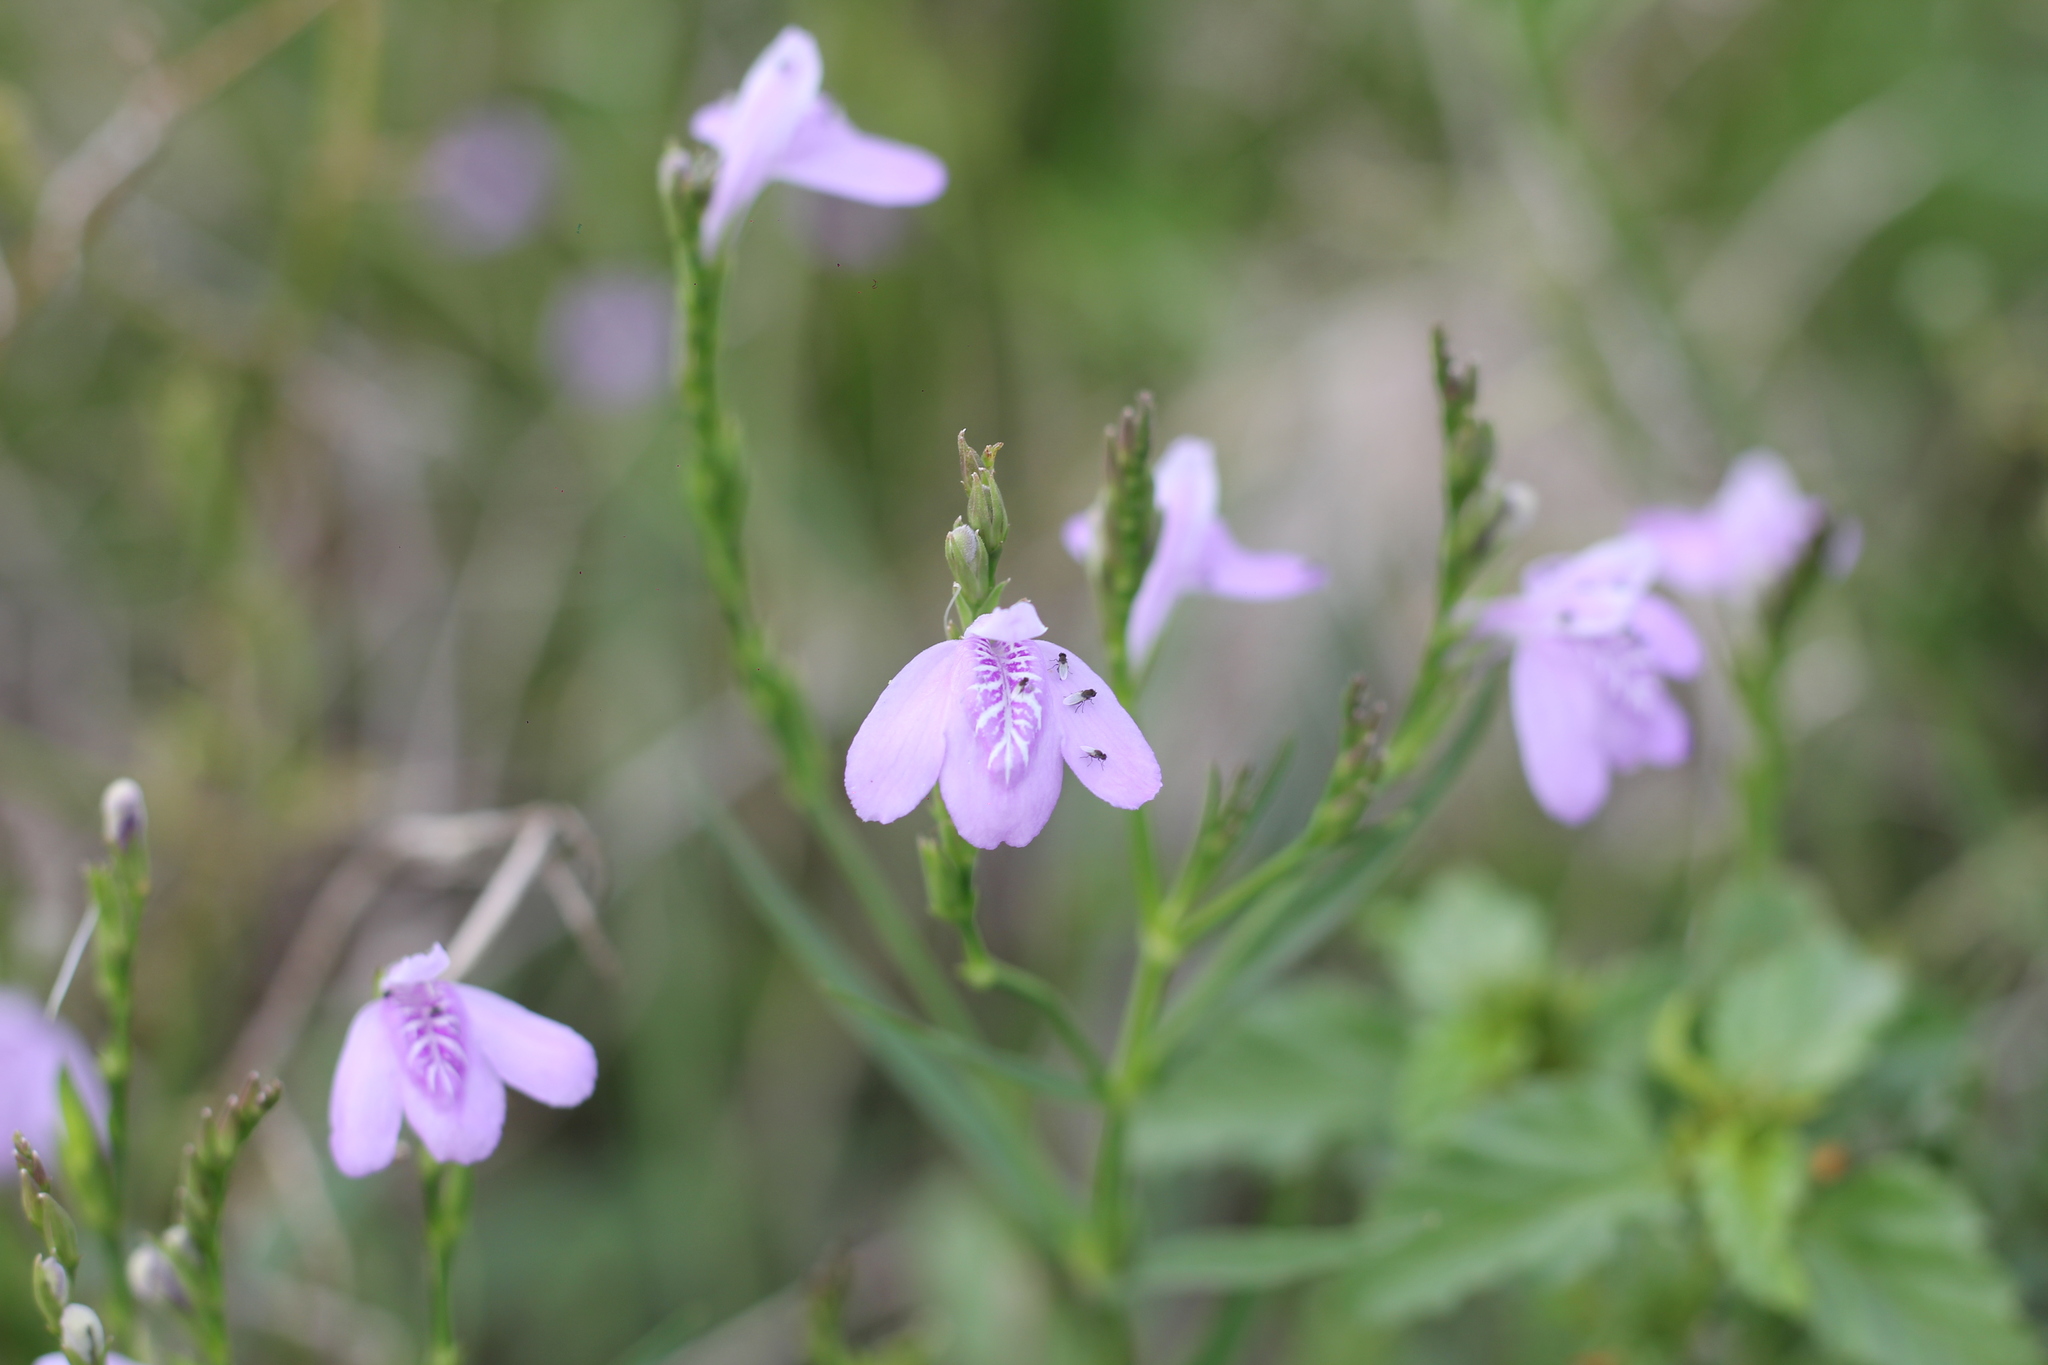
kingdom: Plantae
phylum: Tracheophyta
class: Magnoliopsida
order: Lamiales
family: Acanthaceae
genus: Dianthera
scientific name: Dianthera laevilinguis
